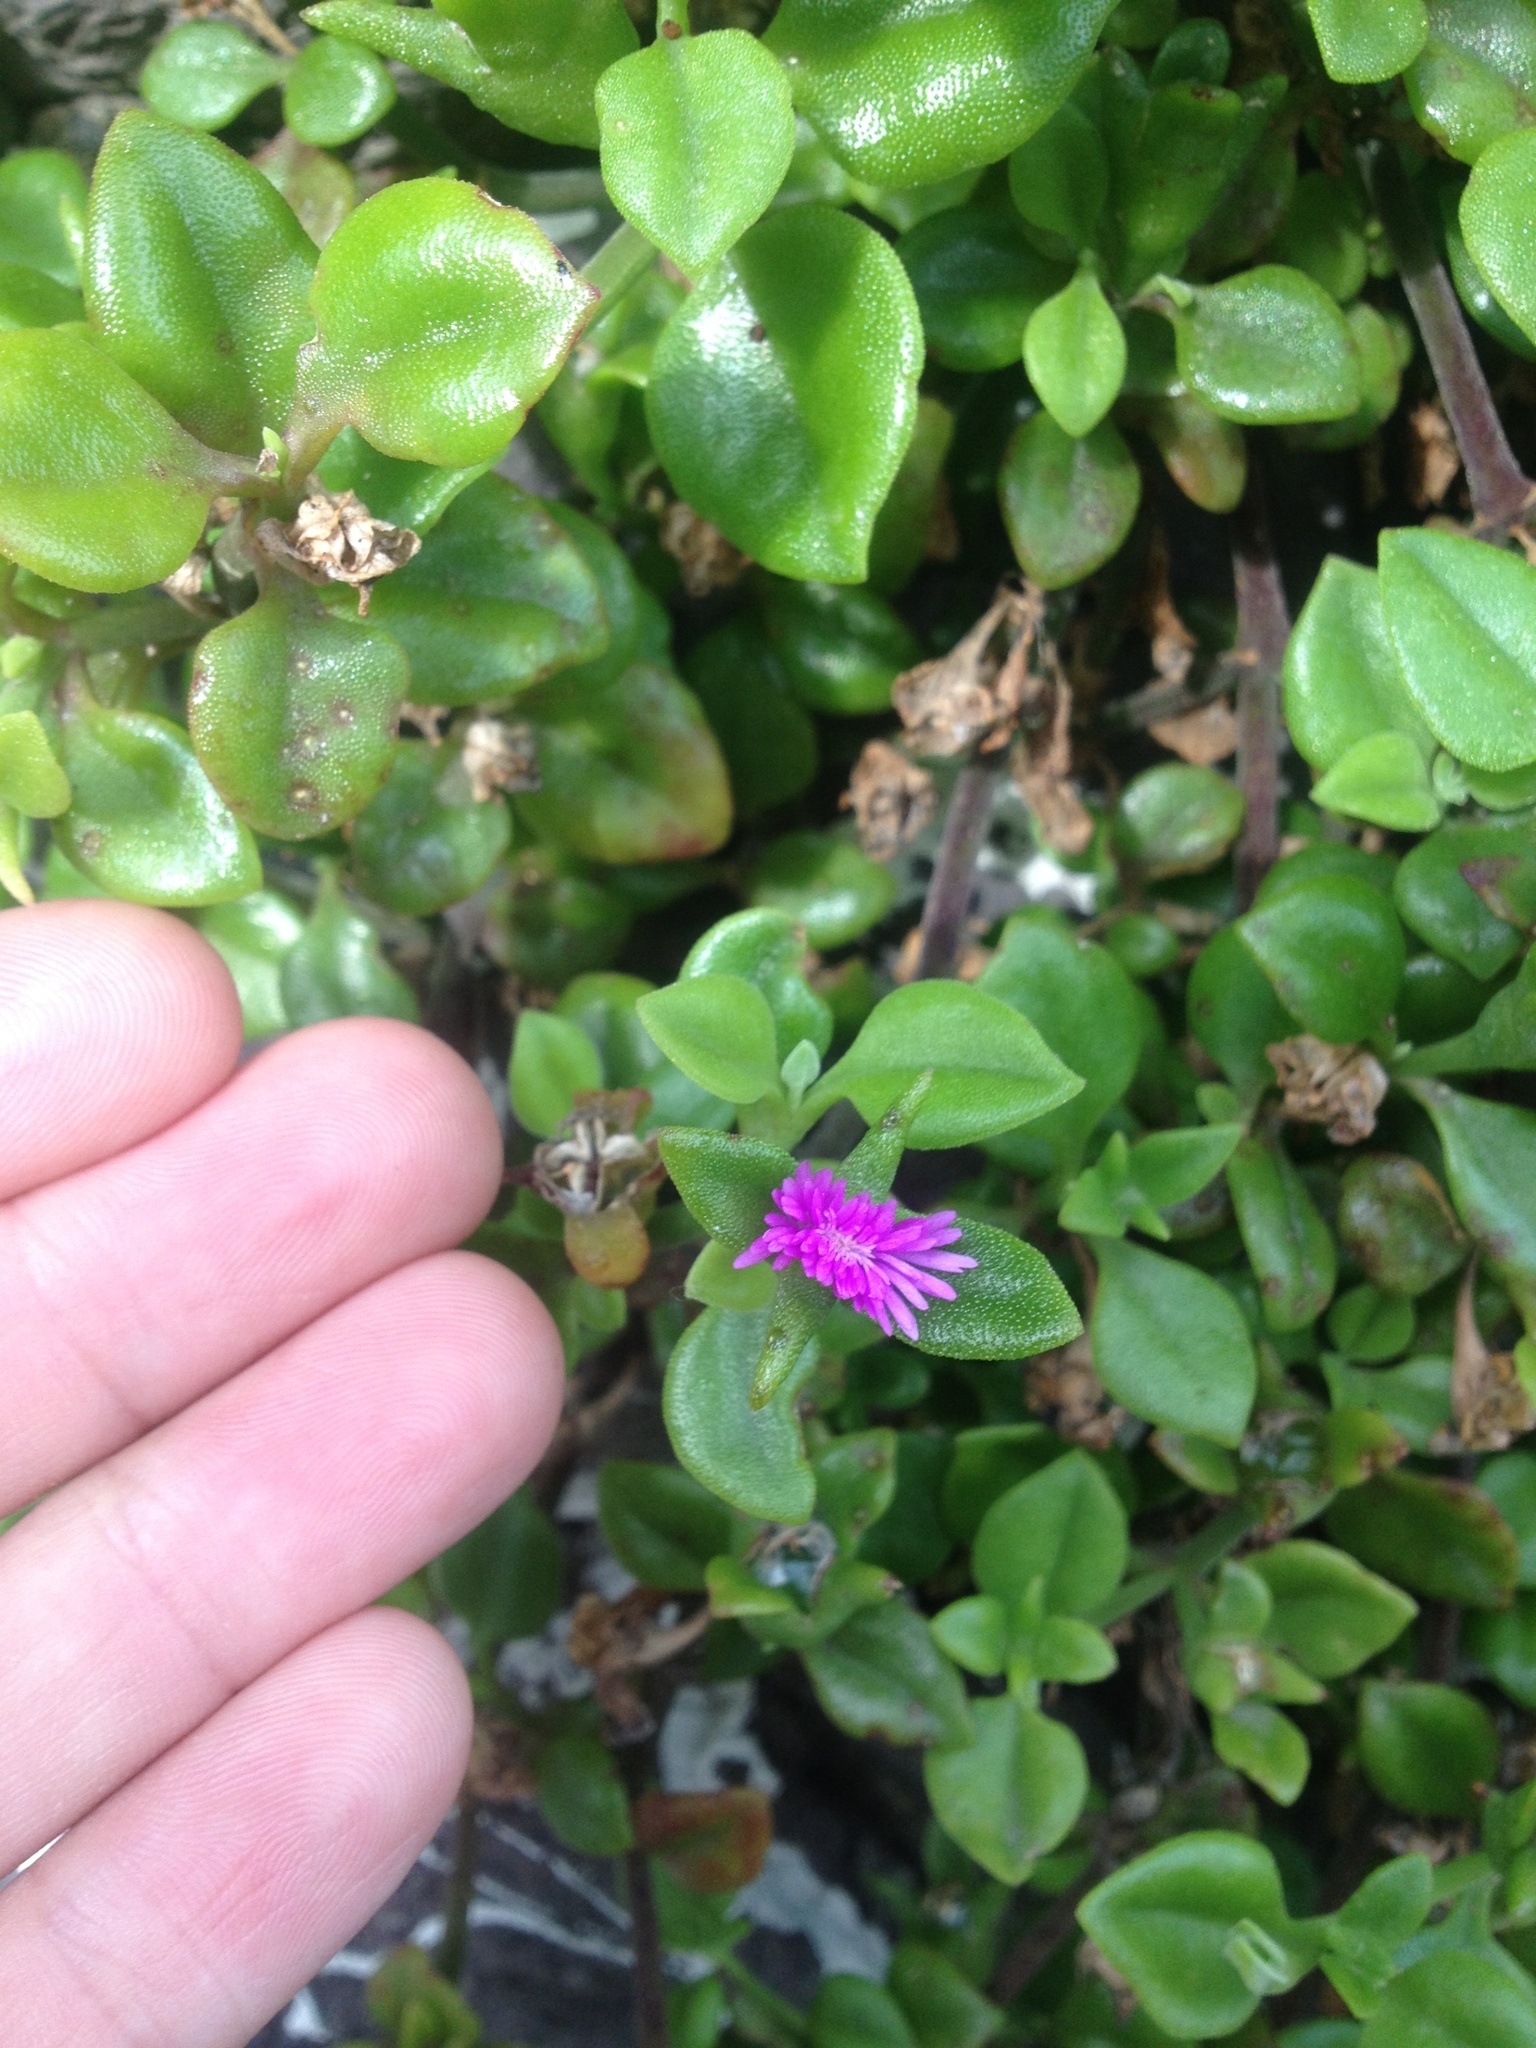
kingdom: Plantae
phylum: Tracheophyta
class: Magnoliopsida
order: Caryophyllales
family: Aizoaceae
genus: Mesembryanthemum
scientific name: Mesembryanthemum cordifolium
